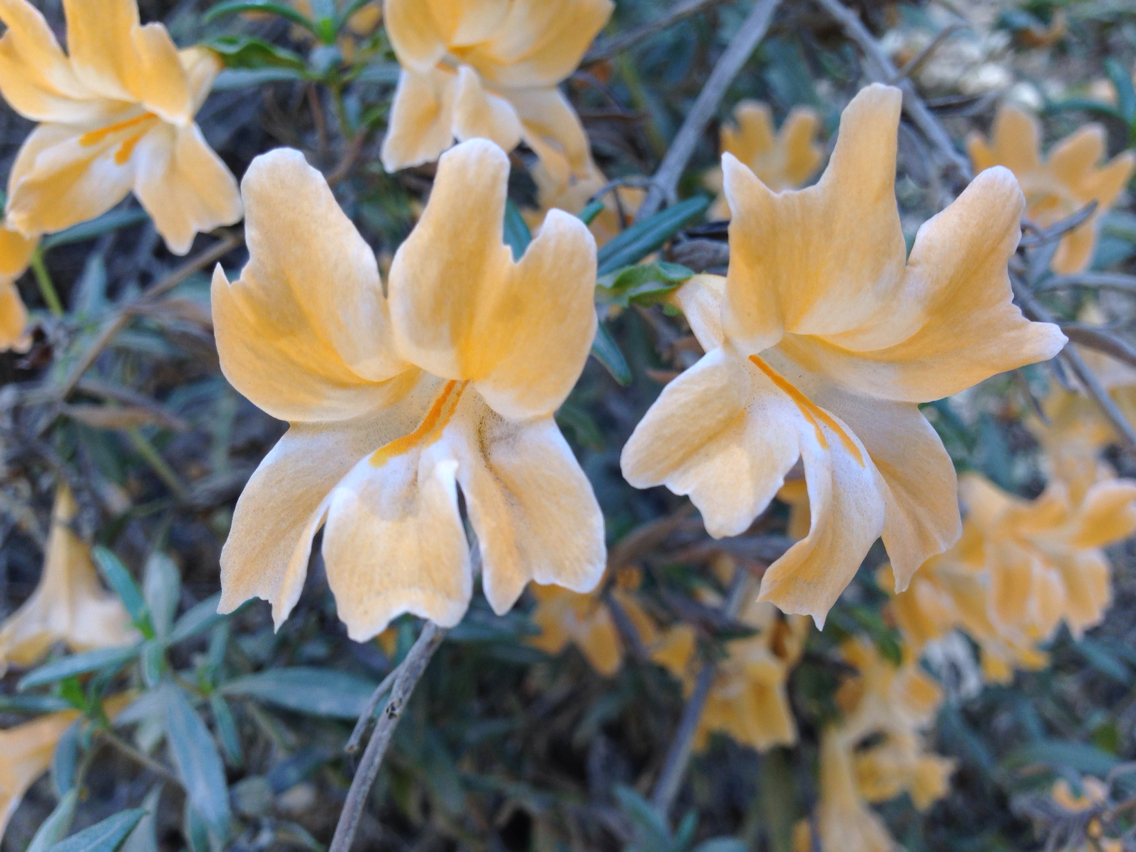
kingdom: Plantae
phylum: Tracheophyta
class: Magnoliopsida
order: Lamiales
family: Phrymaceae
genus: Diplacus
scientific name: Diplacus linearis
